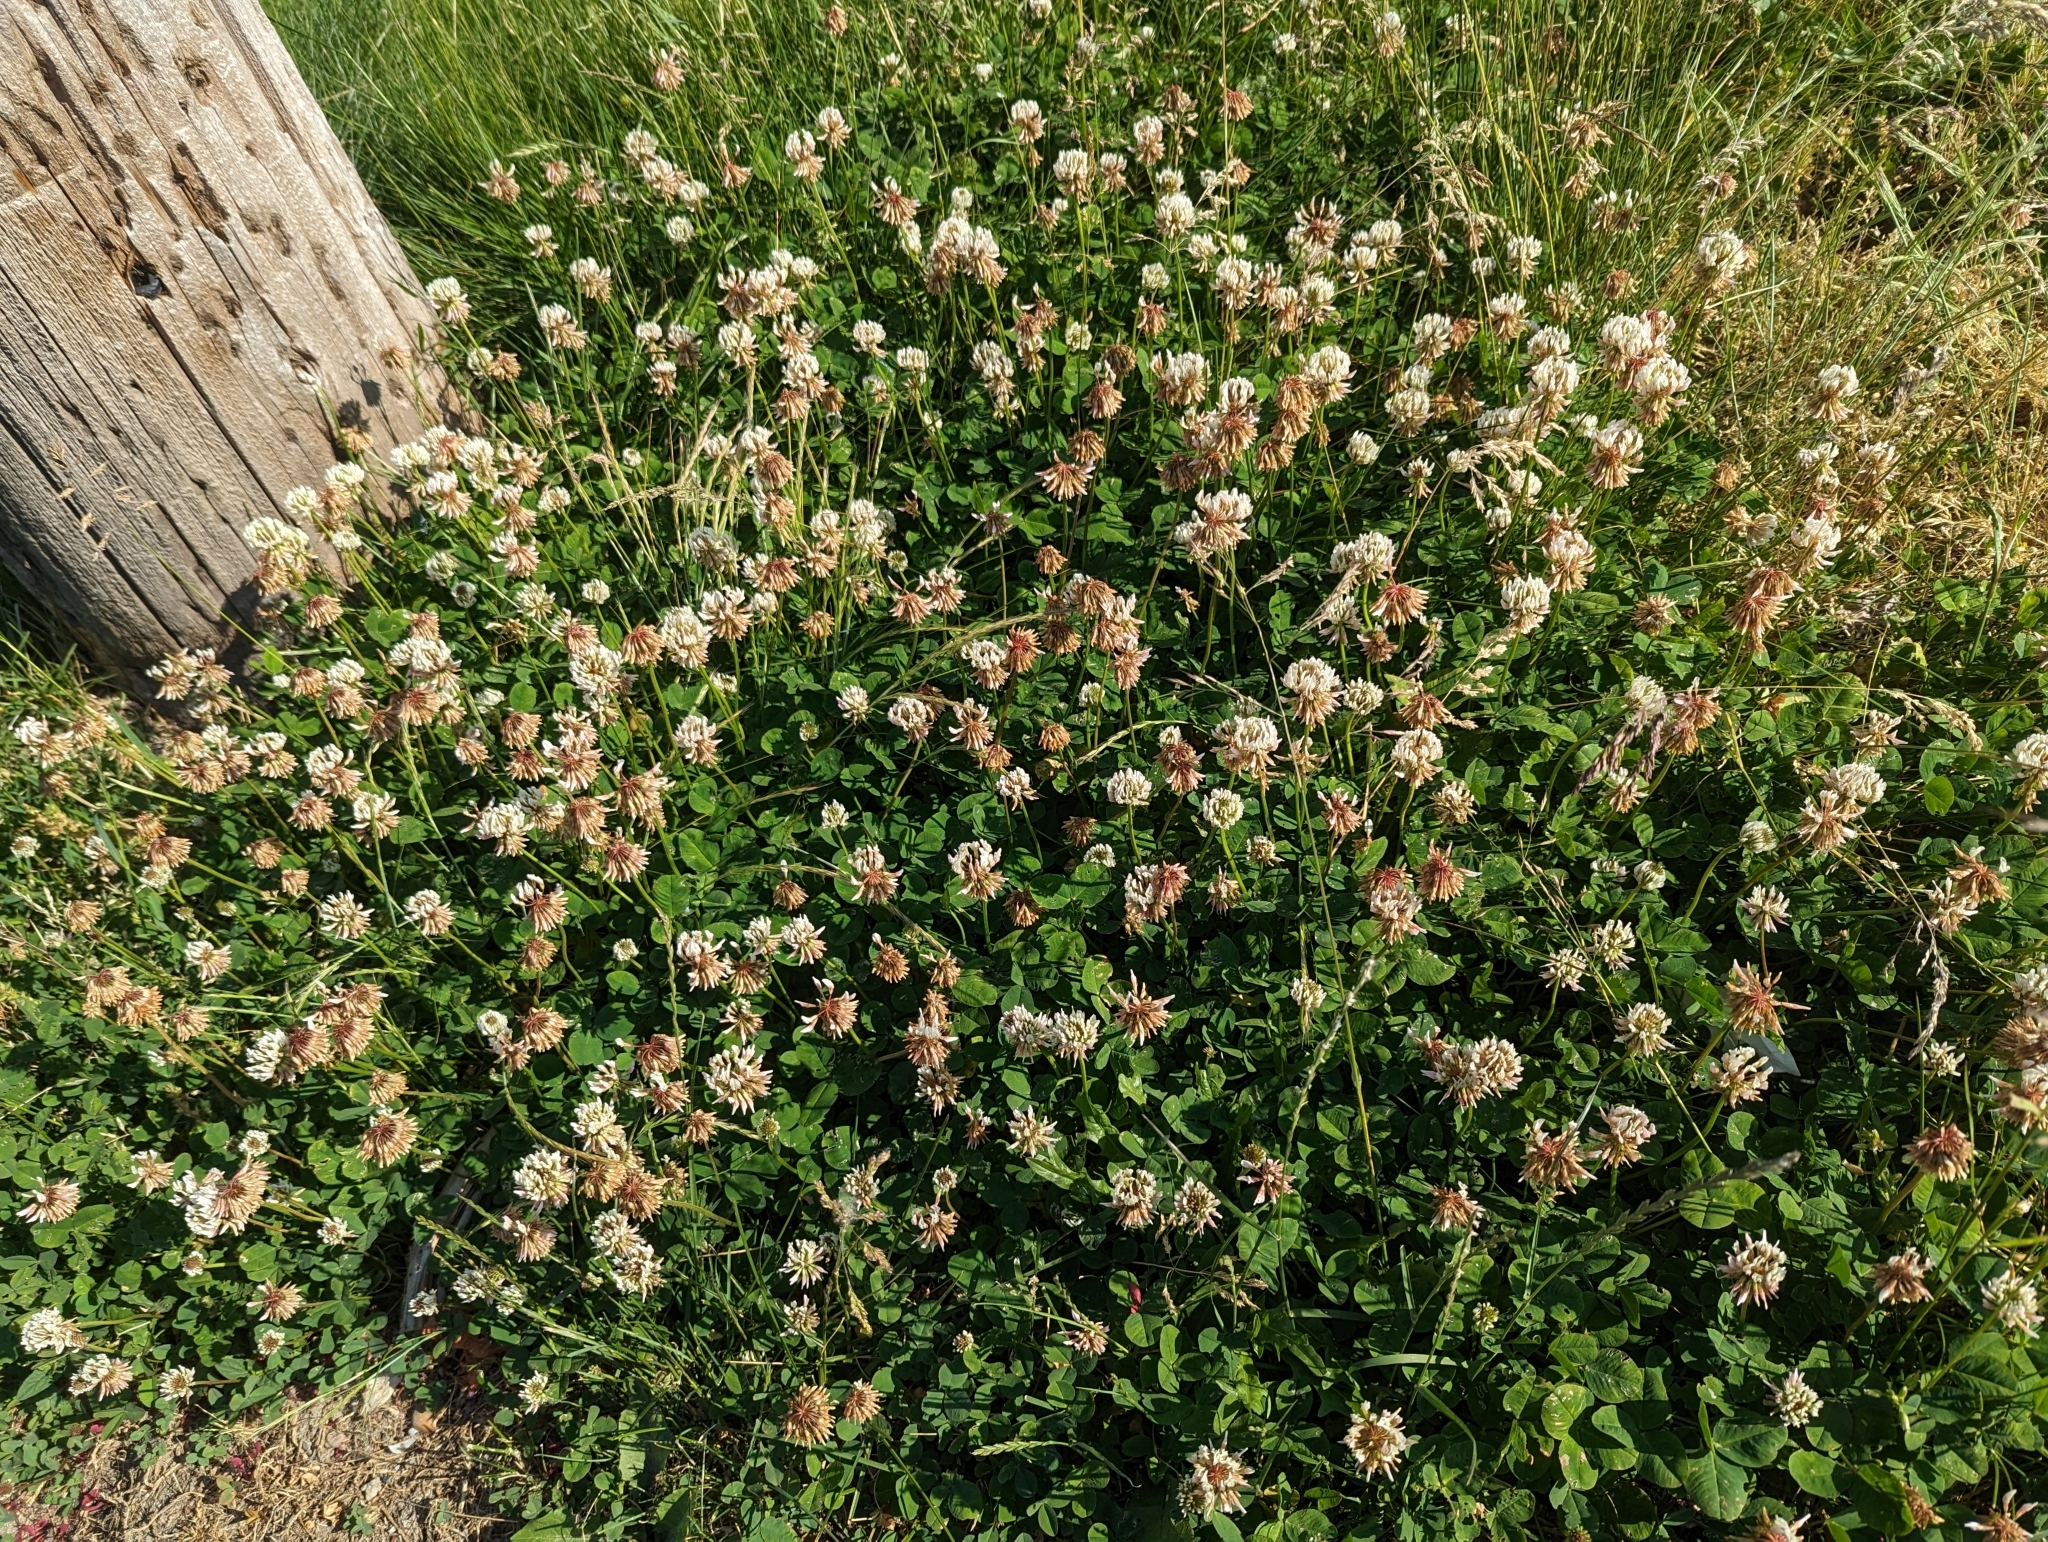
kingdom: Plantae
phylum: Tracheophyta
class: Magnoliopsida
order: Fabales
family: Fabaceae
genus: Trifolium
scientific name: Trifolium repens
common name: White clover
